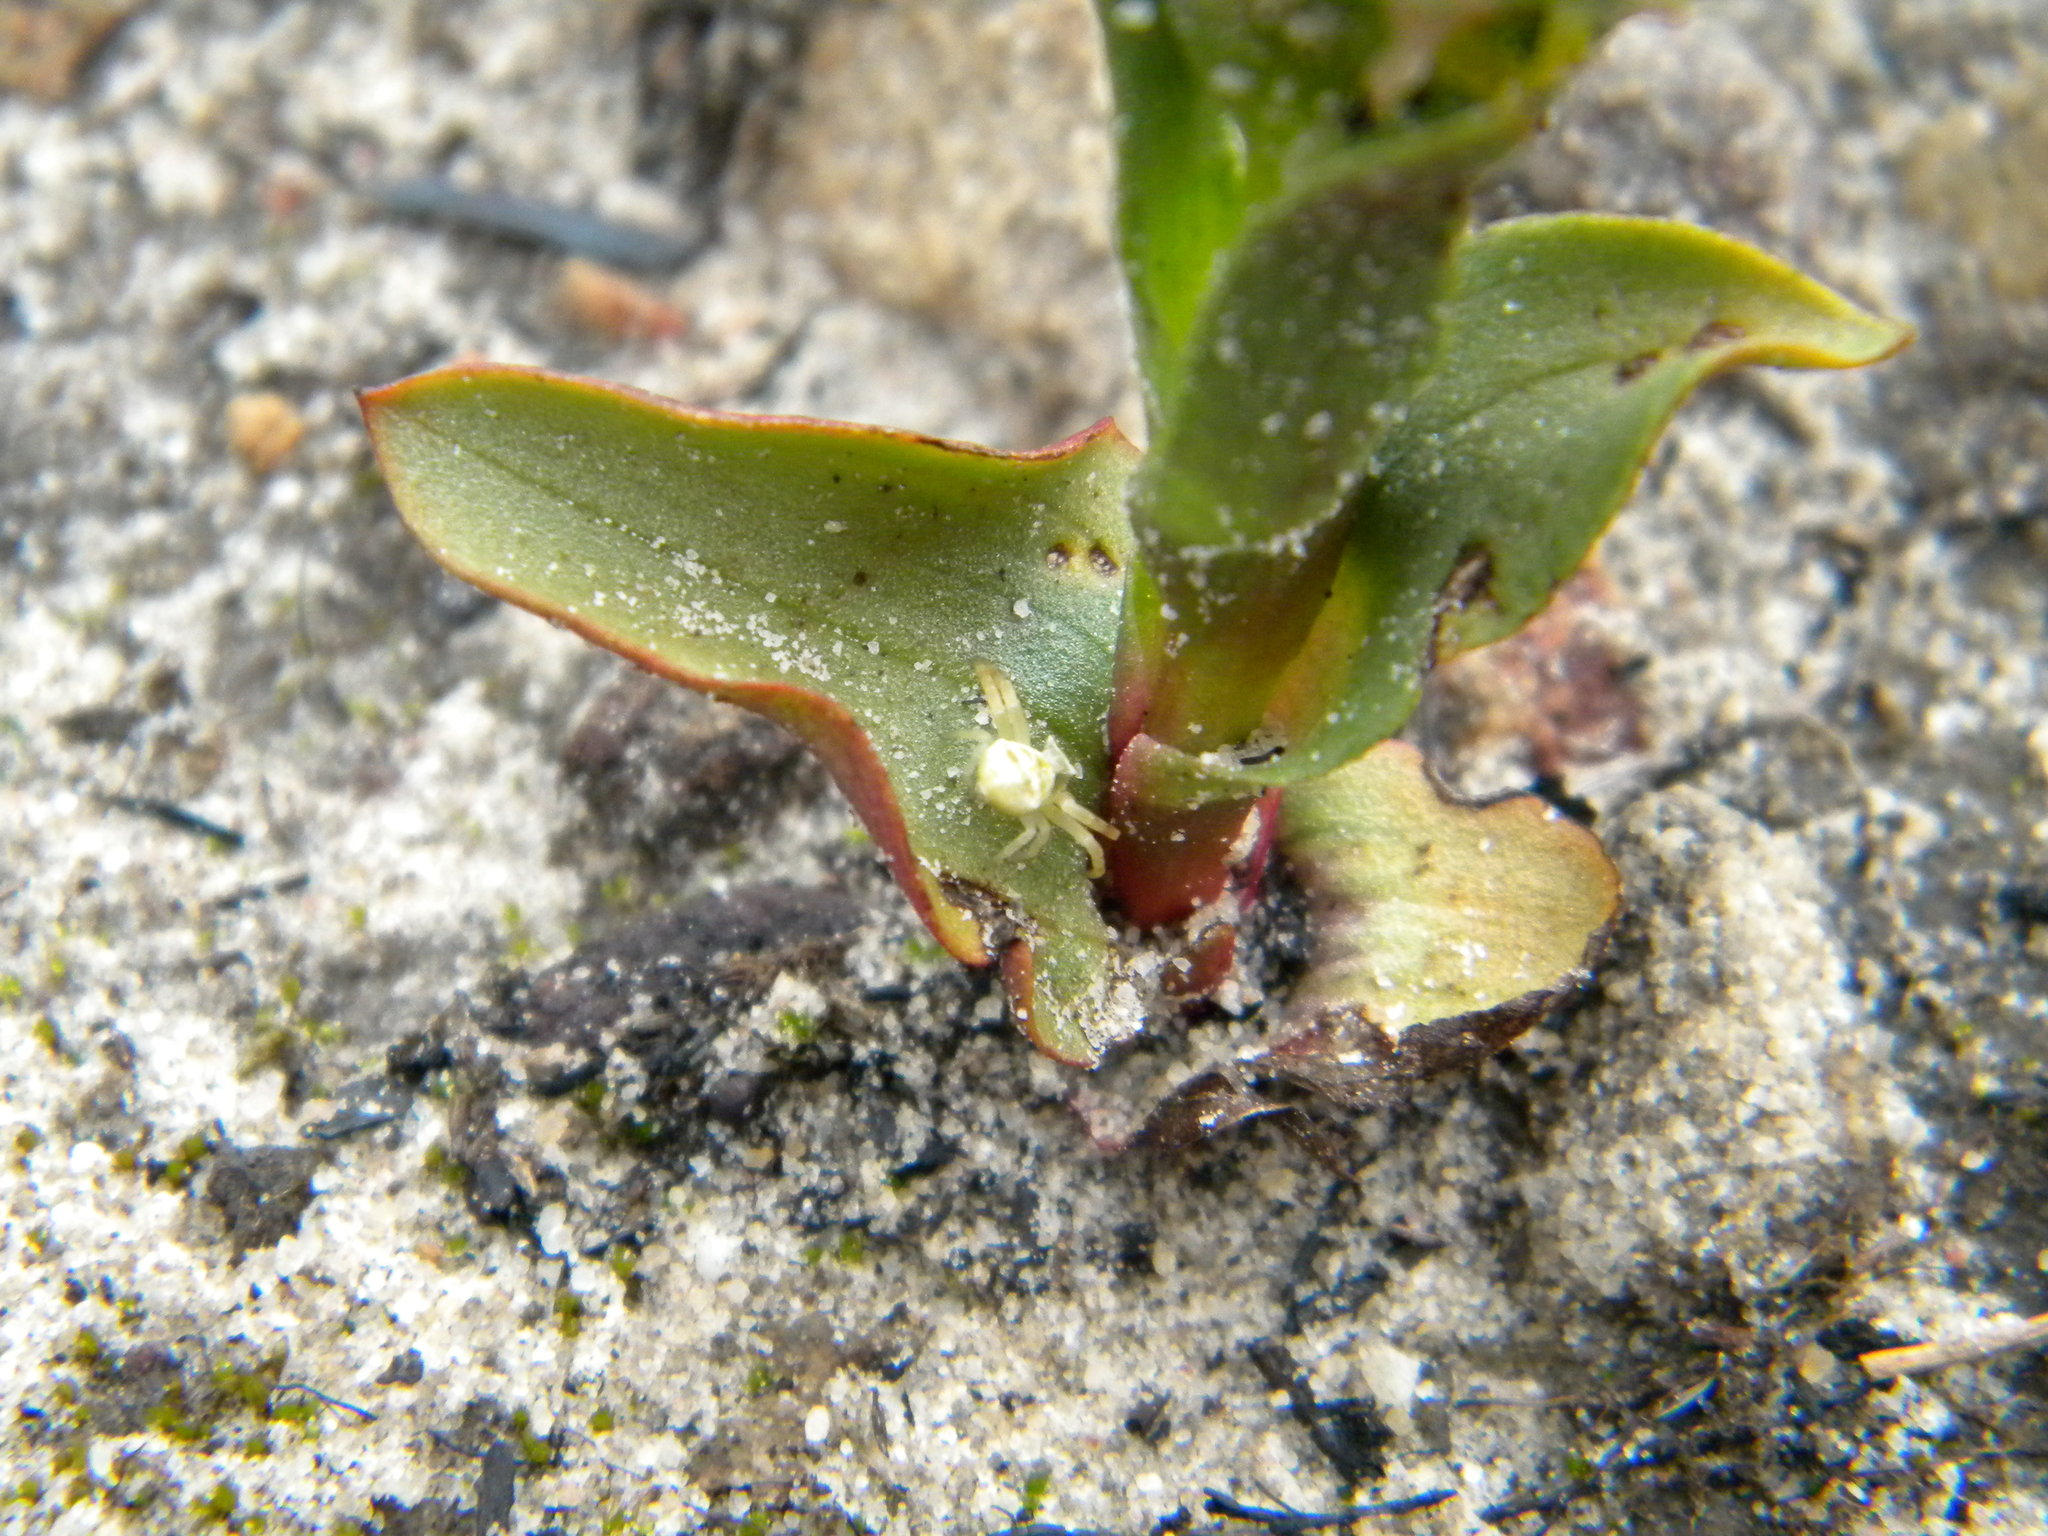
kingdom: Plantae
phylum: Tracheophyta
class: Liliopsida
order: Asparagales
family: Orchidaceae
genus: Disa
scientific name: Disa pygmaea
